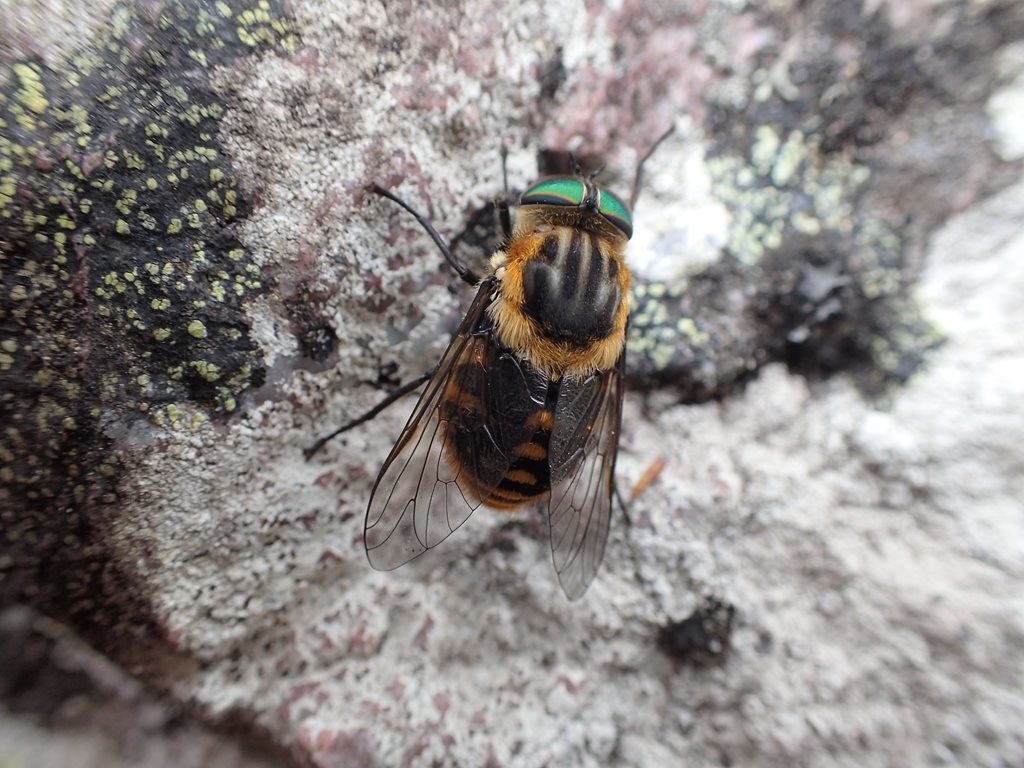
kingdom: Animalia
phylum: Arthropoda
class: Insecta
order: Diptera
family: Tabanidae
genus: Scaptia
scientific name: Scaptia auriflua
